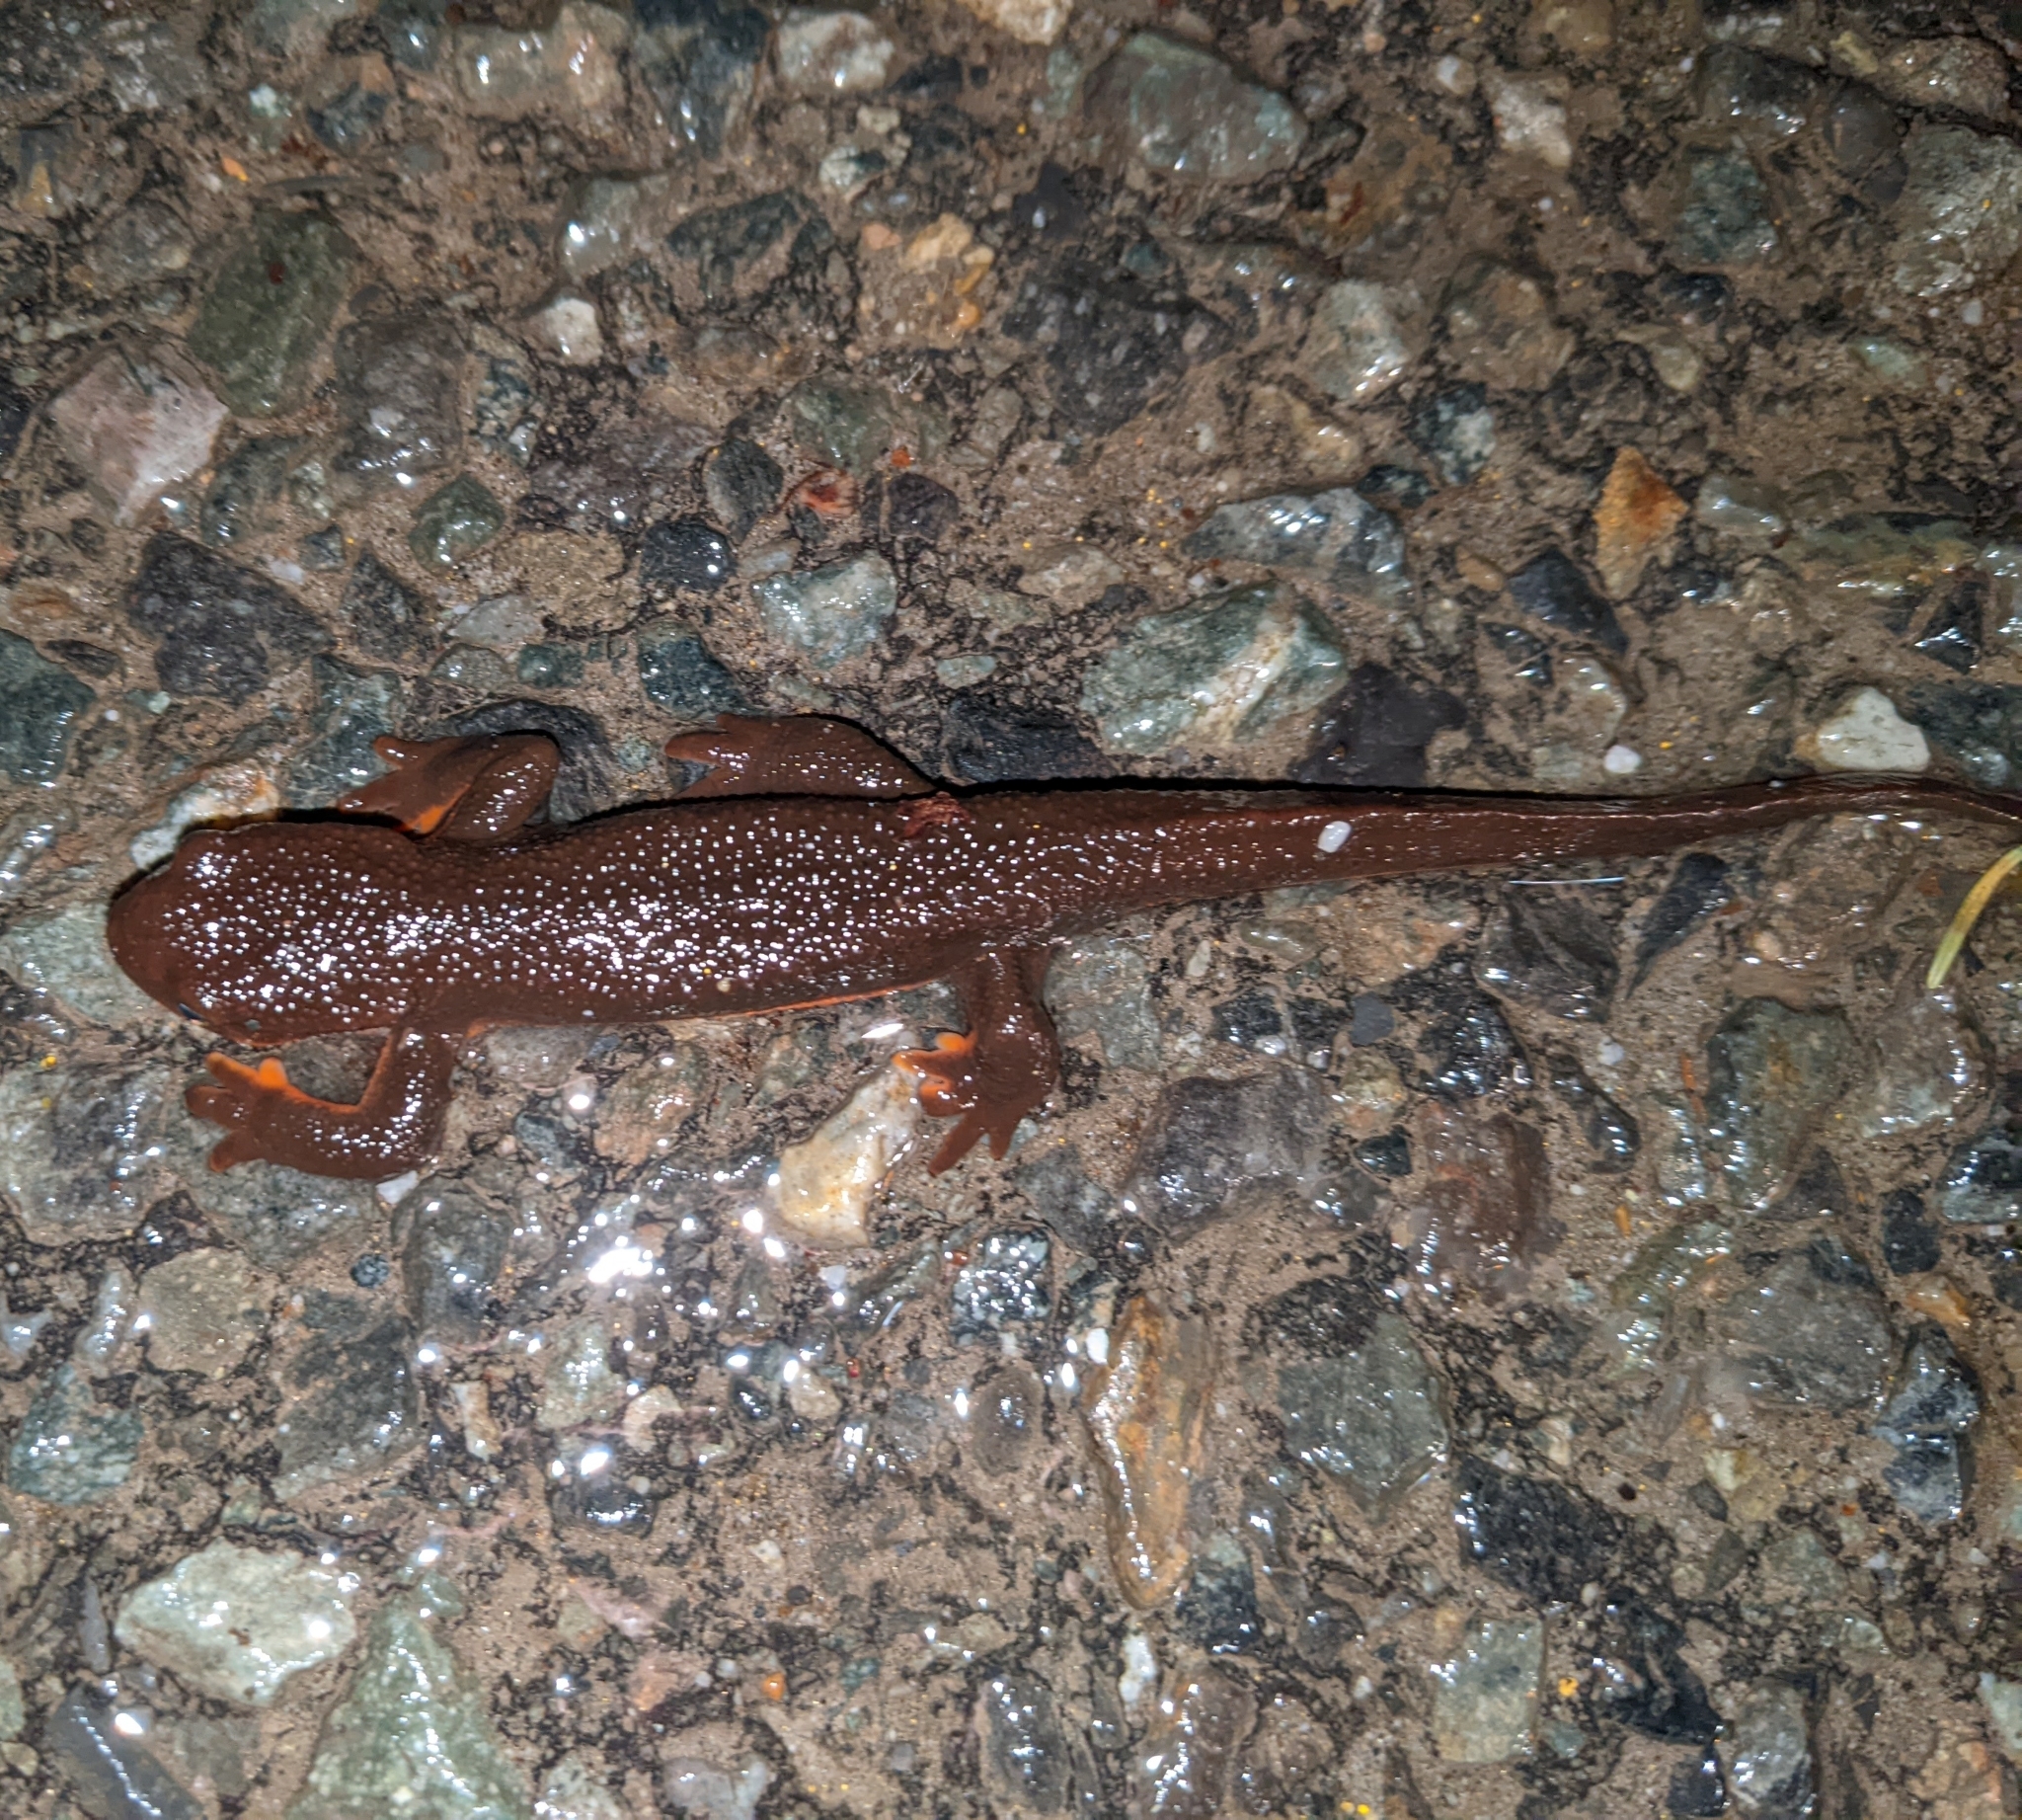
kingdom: Animalia
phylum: Chordata
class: Amphibia
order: Caudata
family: Salamandridae
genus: Taricha
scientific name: Taricha granulosa
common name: Roughskin newt
